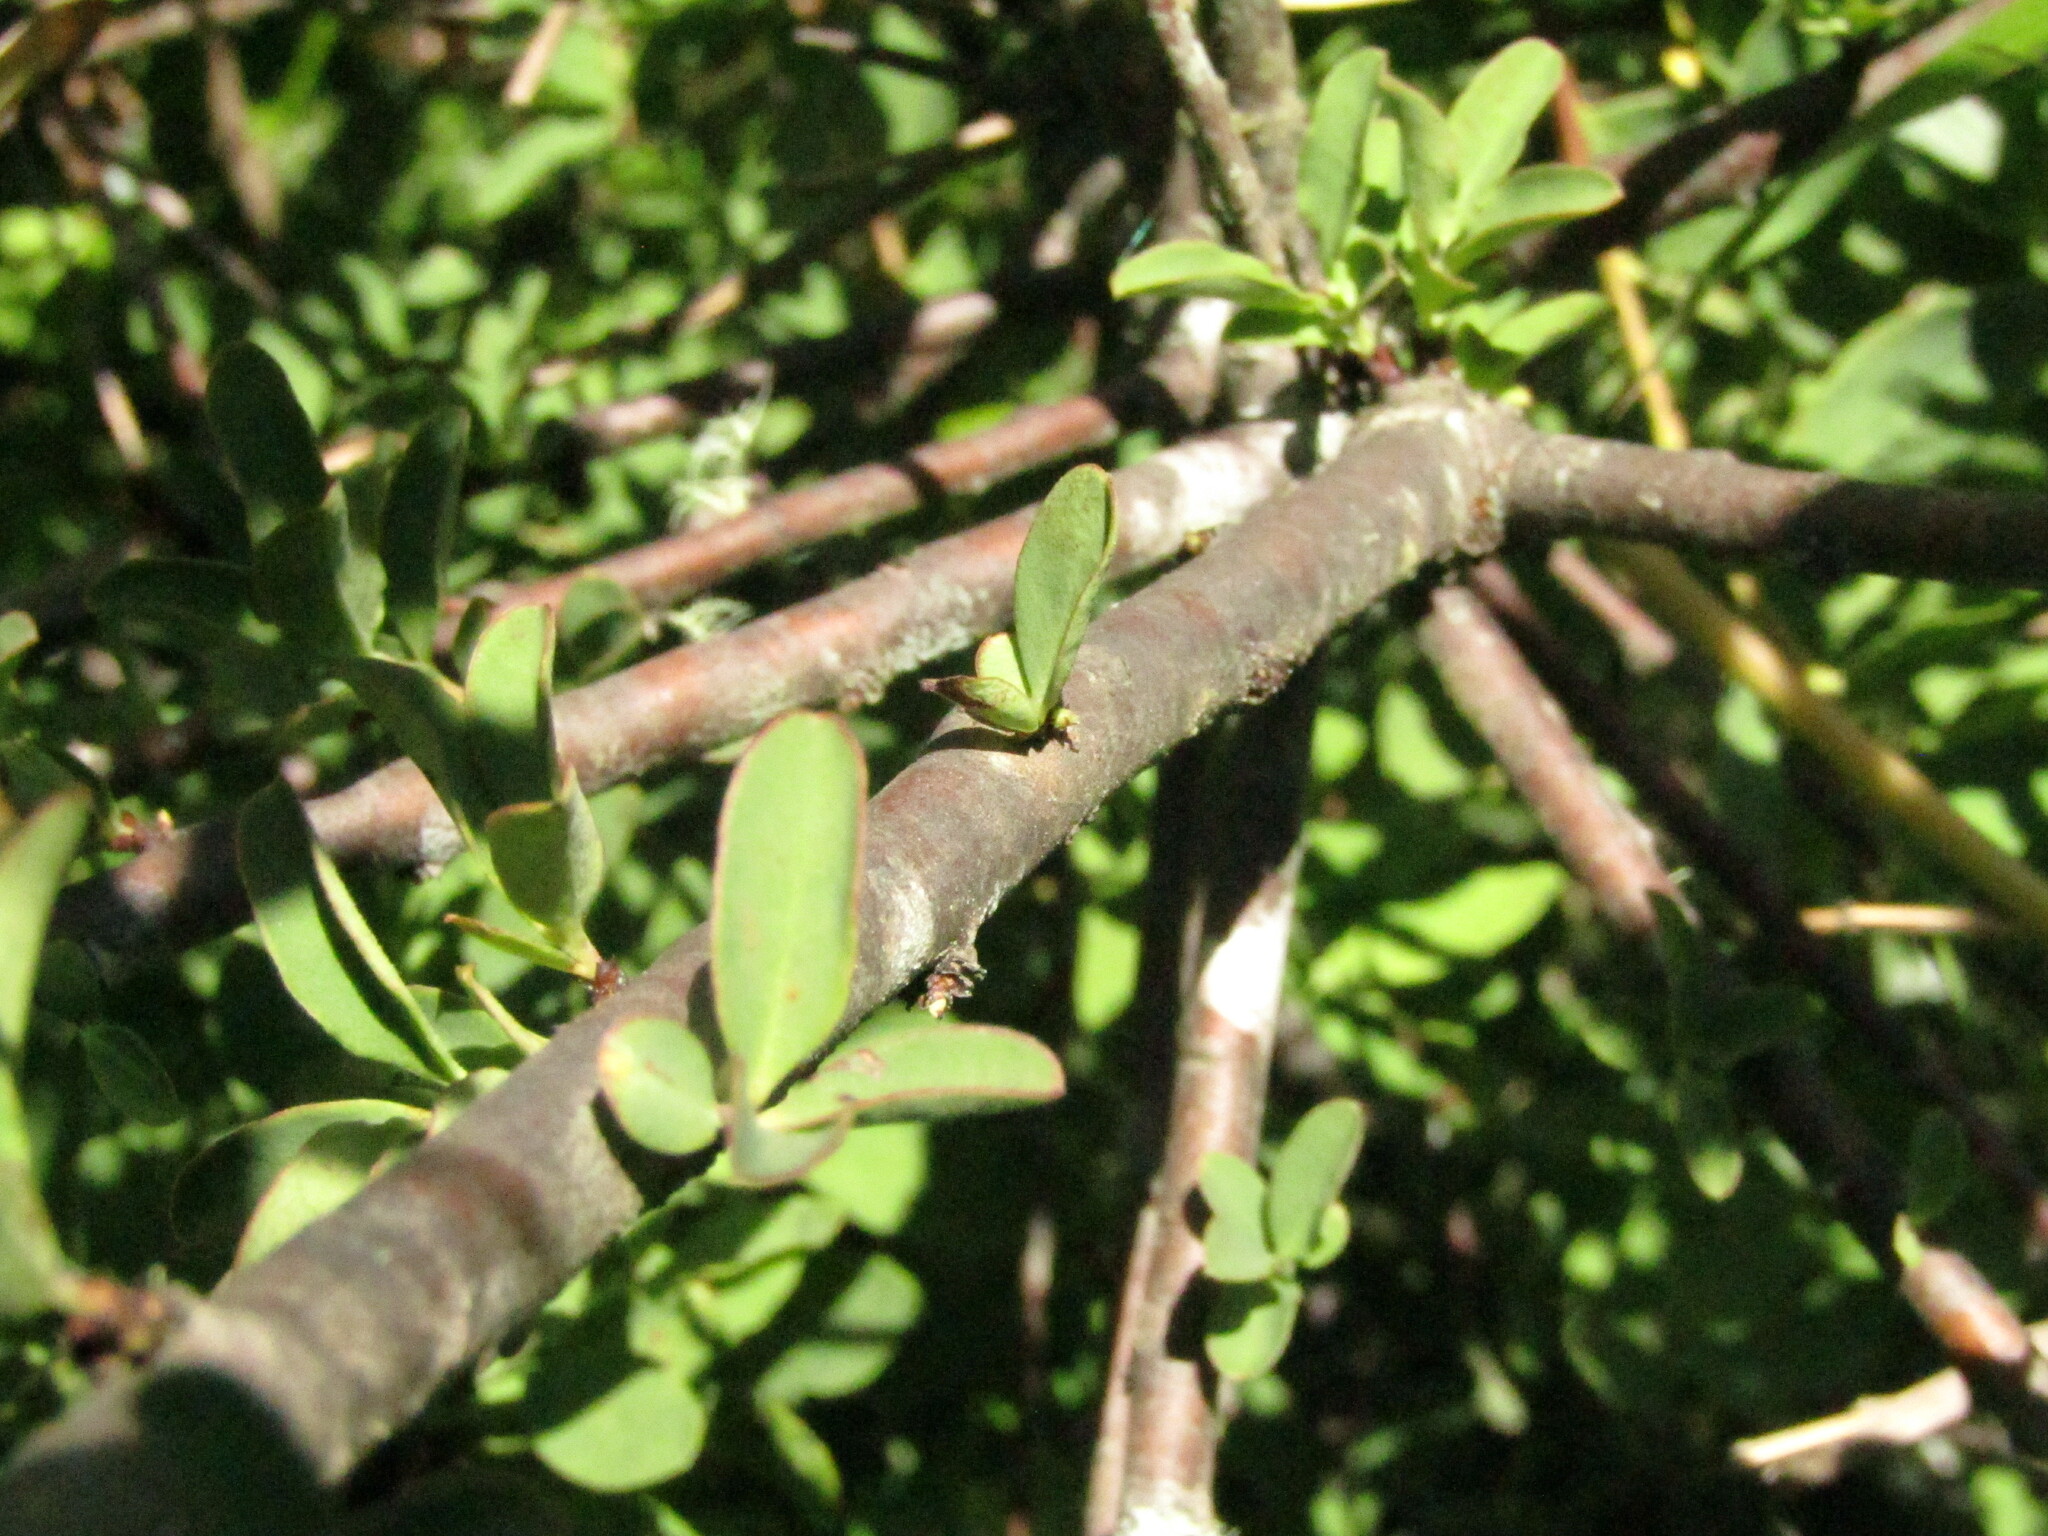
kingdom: Plantae
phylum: Tracheophyta
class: Magnoliopsida
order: Santalales
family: Santalaceae
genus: Myoschilos
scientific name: Myoschilos oblongum
